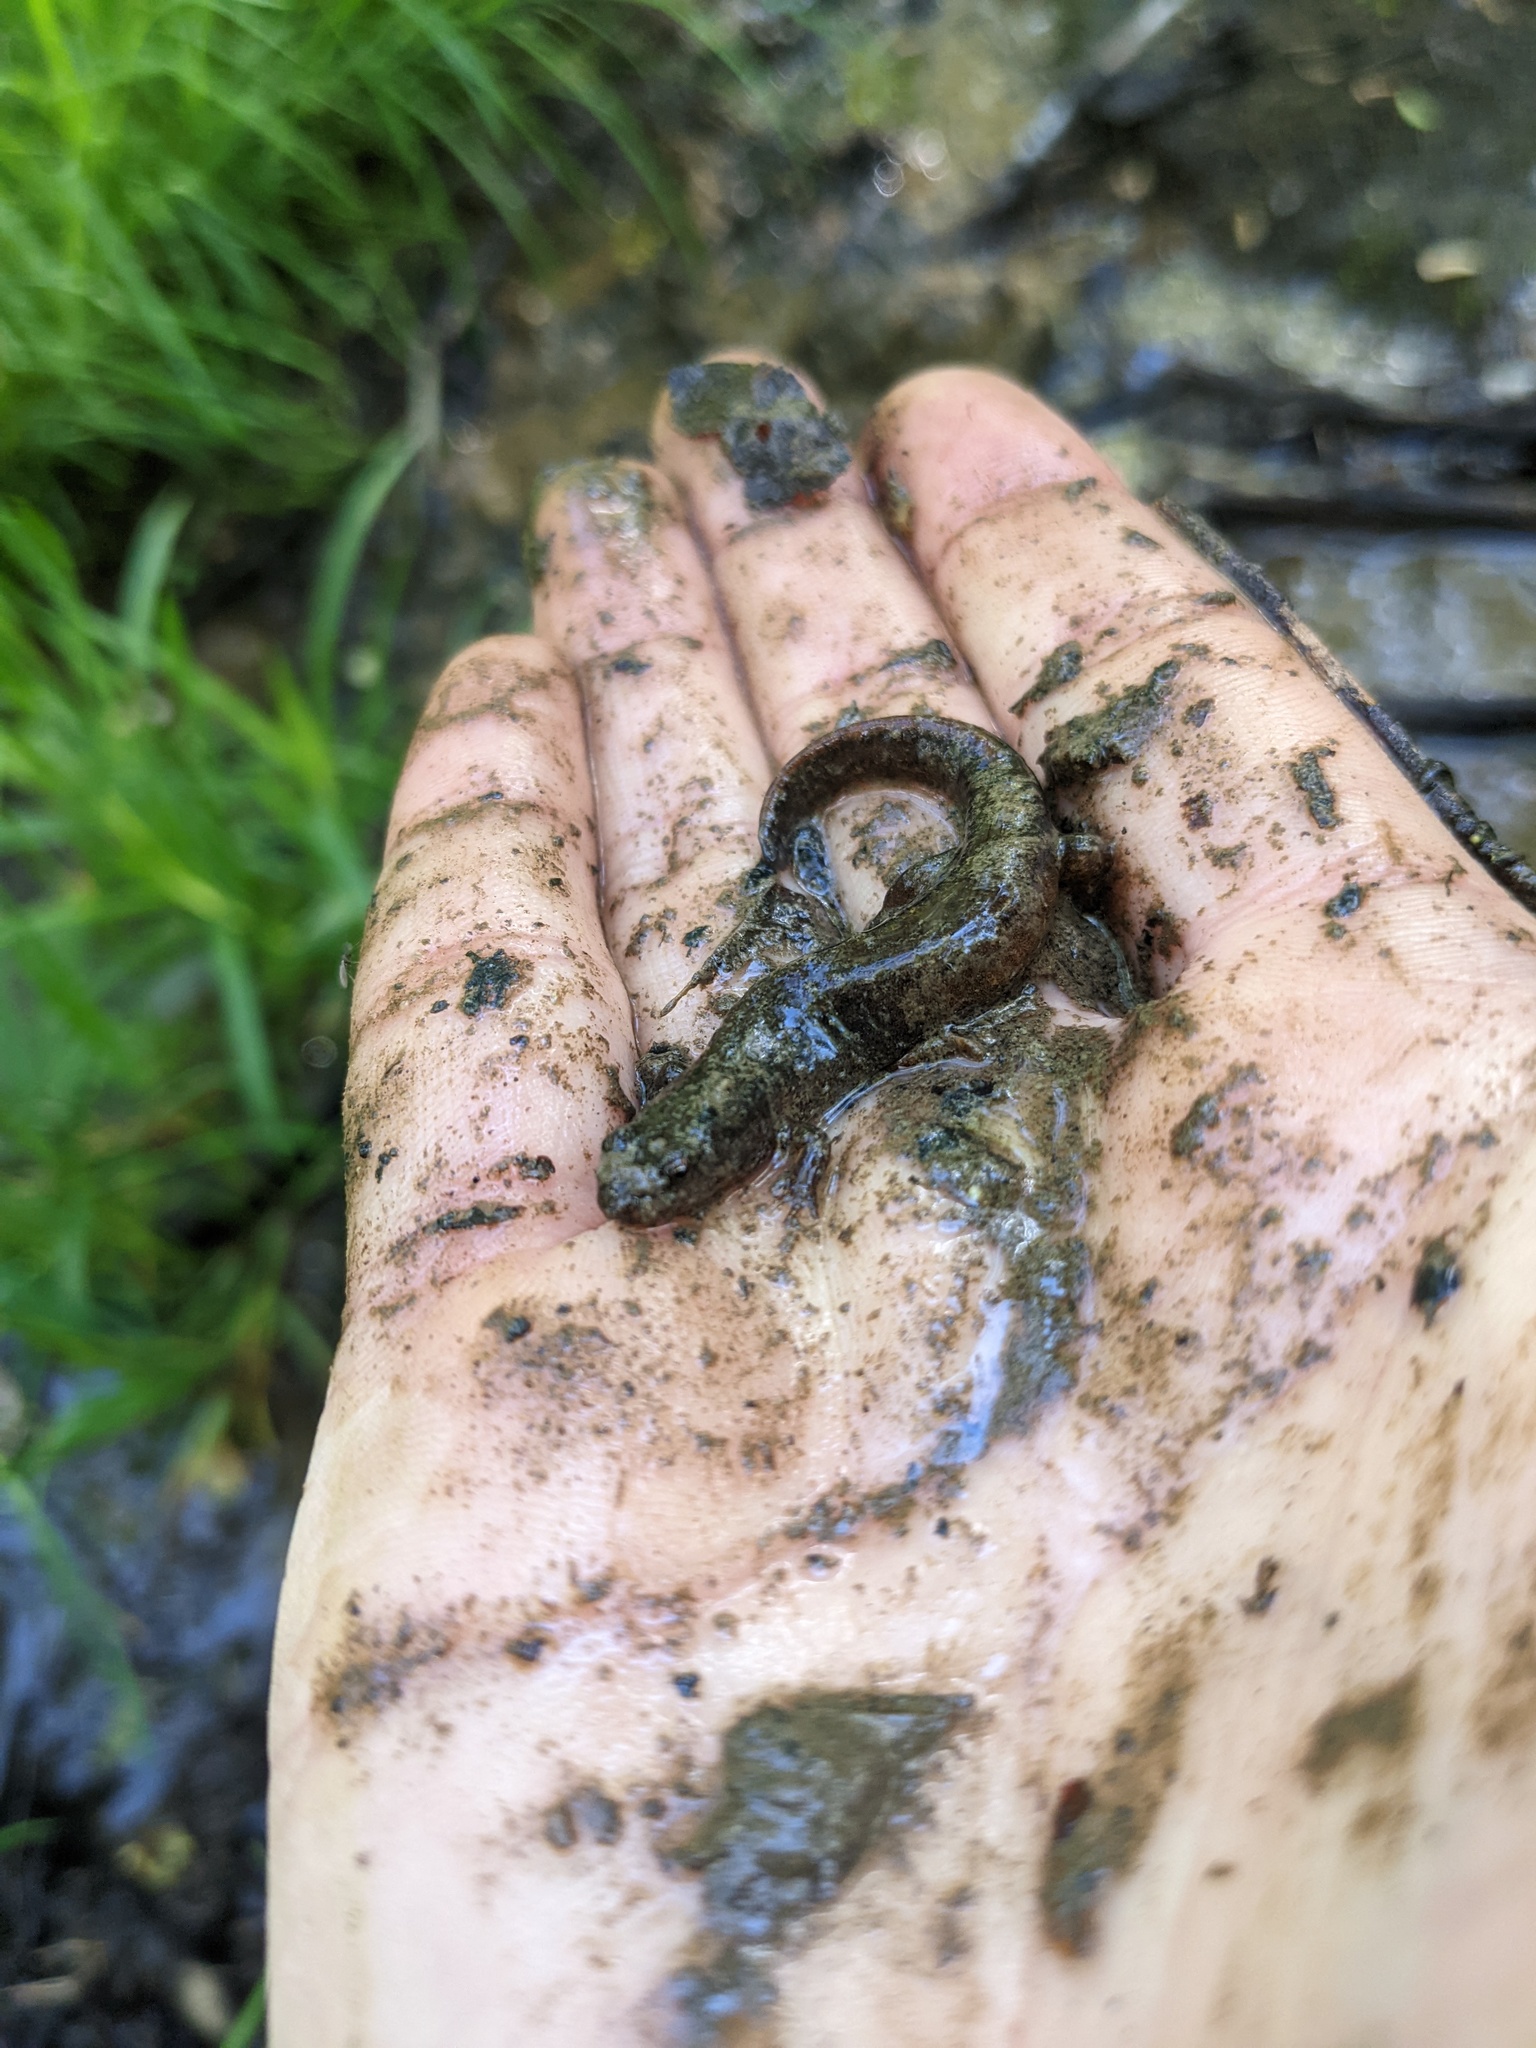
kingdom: Animalia
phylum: Chordata
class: Amphibia
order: Caudata
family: Plethodontidae
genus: Desmognathus
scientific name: Desmognathus fuscus
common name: Northern dusky salamander
